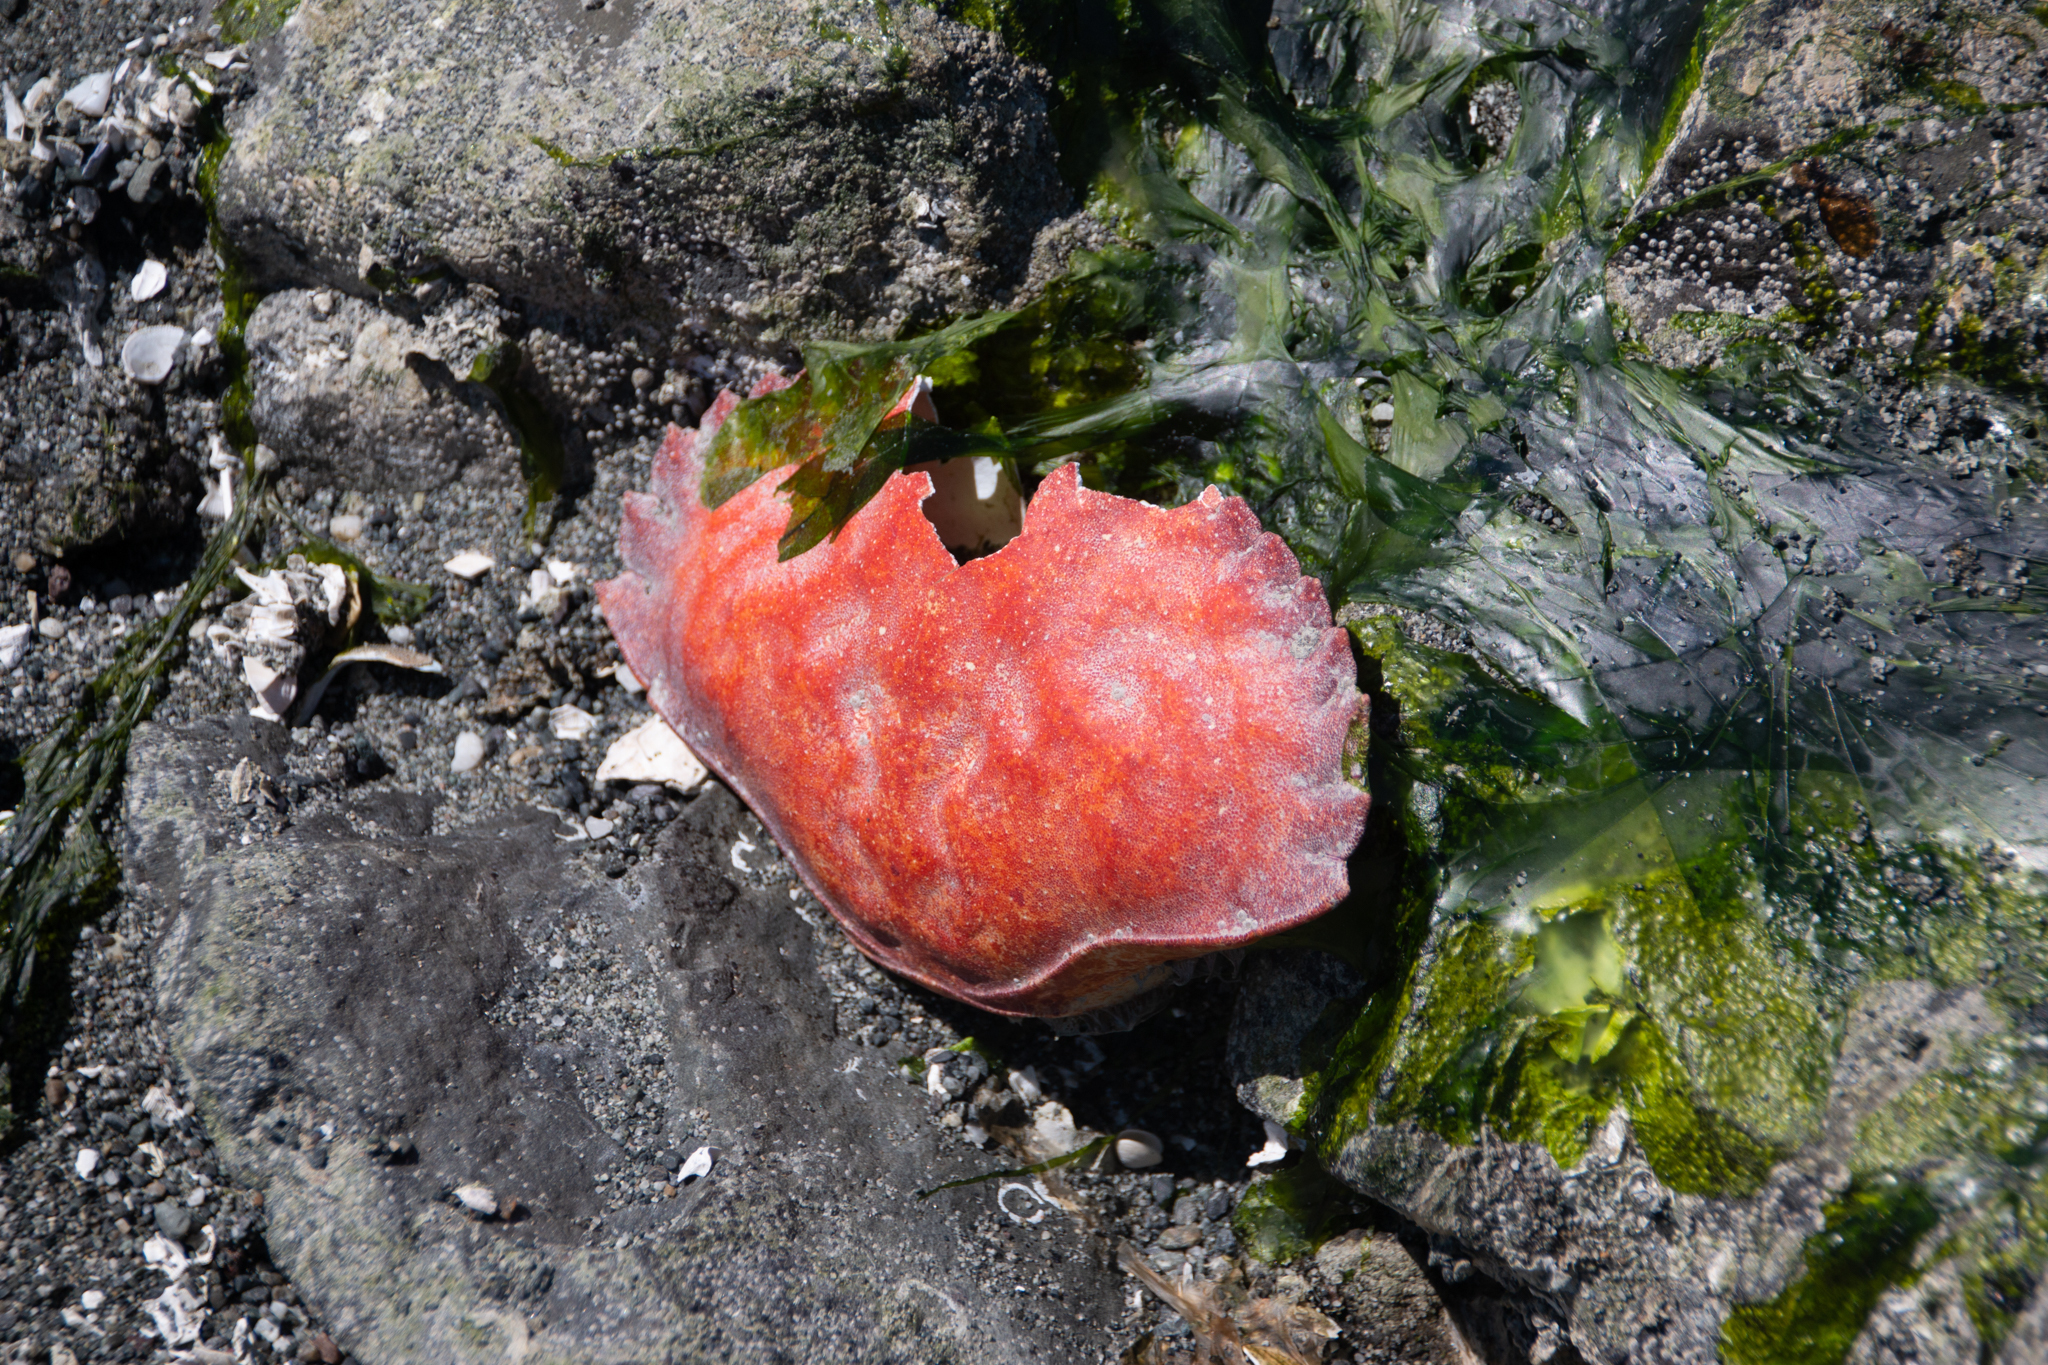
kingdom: Animalia
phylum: Arthropoda
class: Malacostraca
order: Decapoda
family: Cancridae
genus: Cancer
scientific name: Cancer productus
